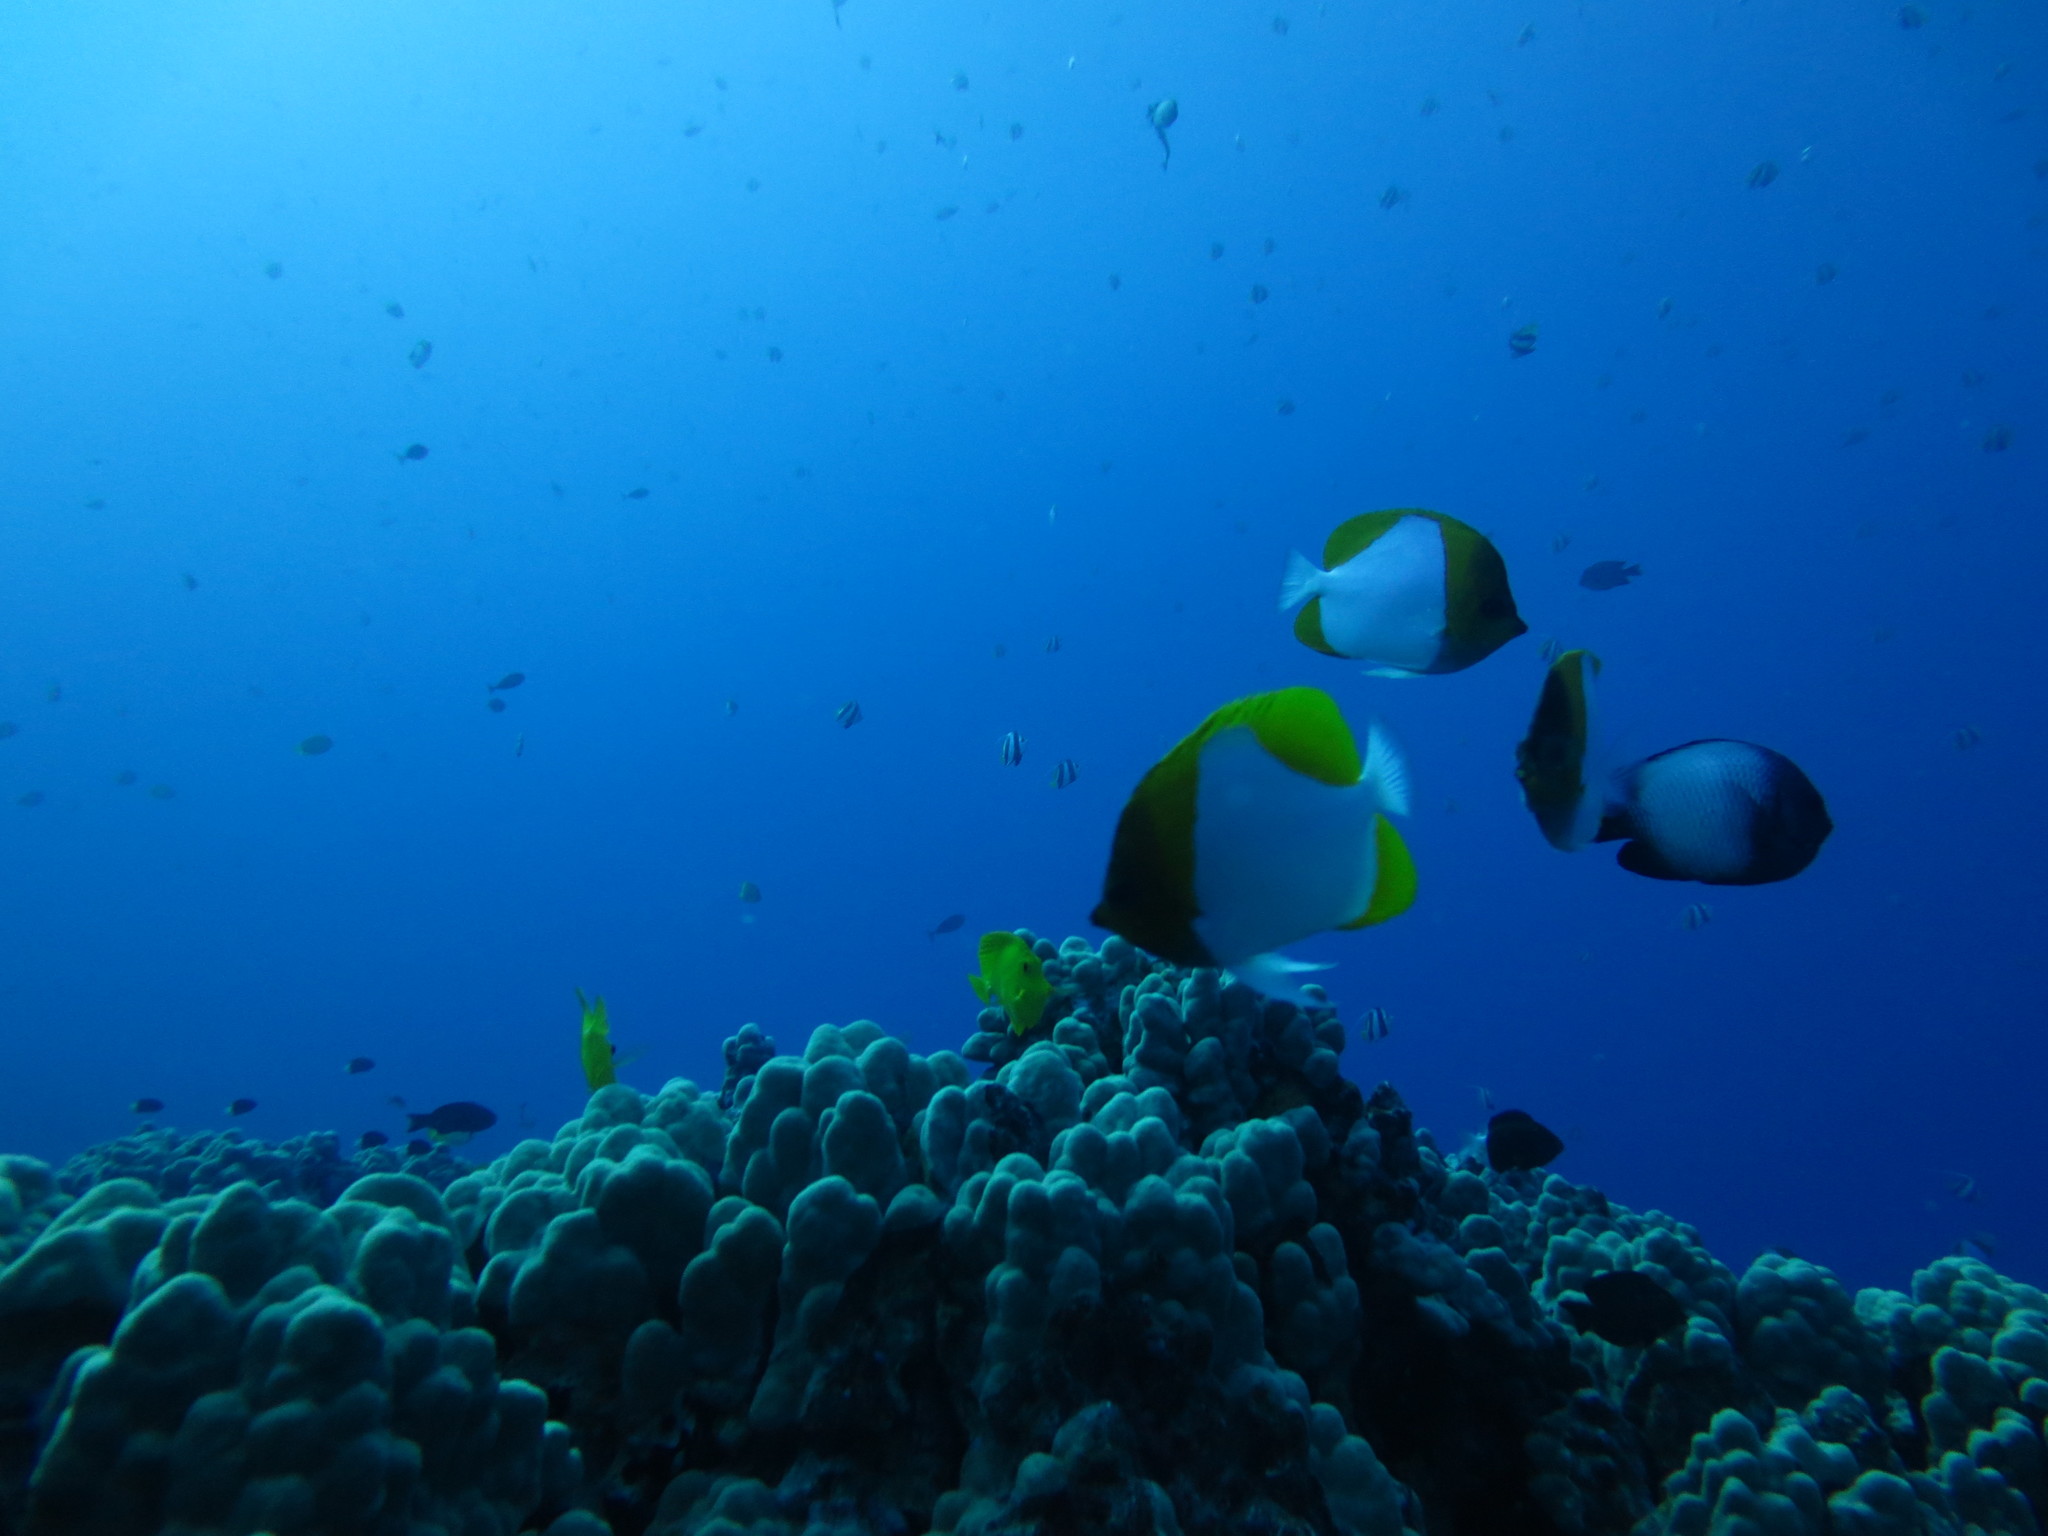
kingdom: Animalia
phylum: Chordata
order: Perciformes
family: Chaetodontidae
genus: Hemitaurichthys
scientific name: Hemitaurichthys polylepis
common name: Brushytoothed butterflyfish
